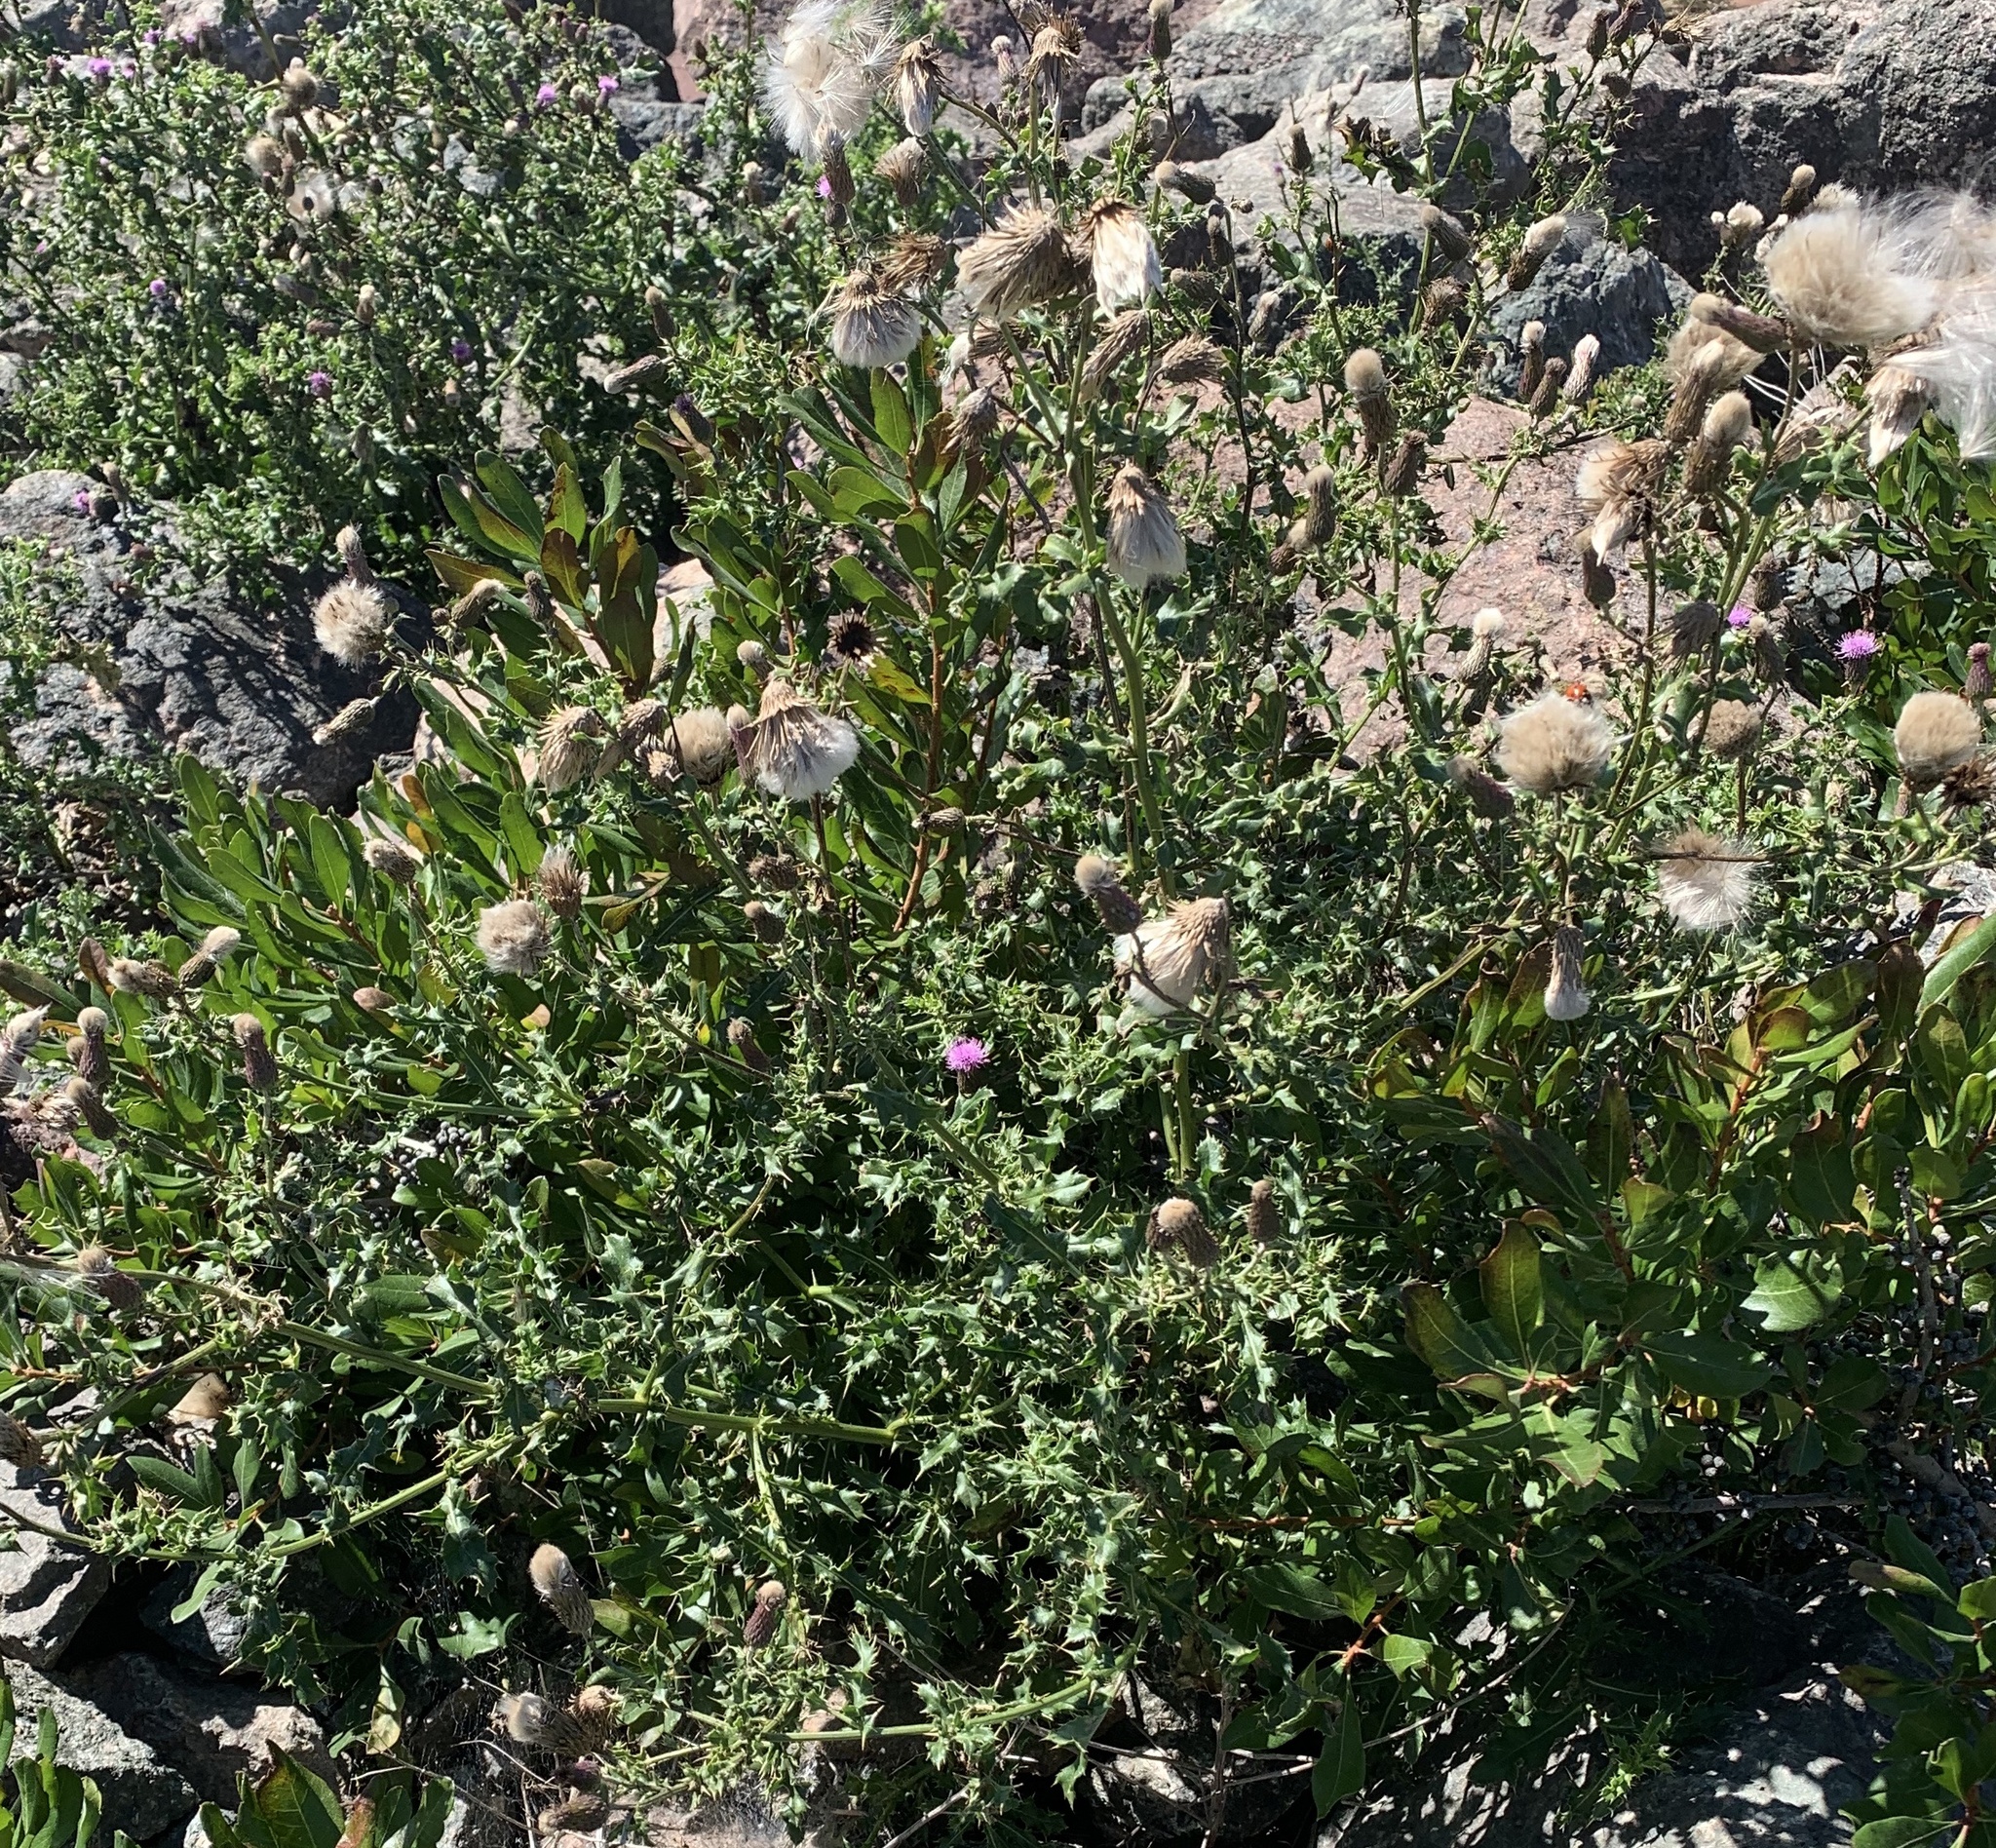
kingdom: Plantae
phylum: Tracheophyta
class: Magnoliopsida
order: Asterales
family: Asteraceae
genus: Cirsium
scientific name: Cirsium arvense
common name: Creeping thistle
